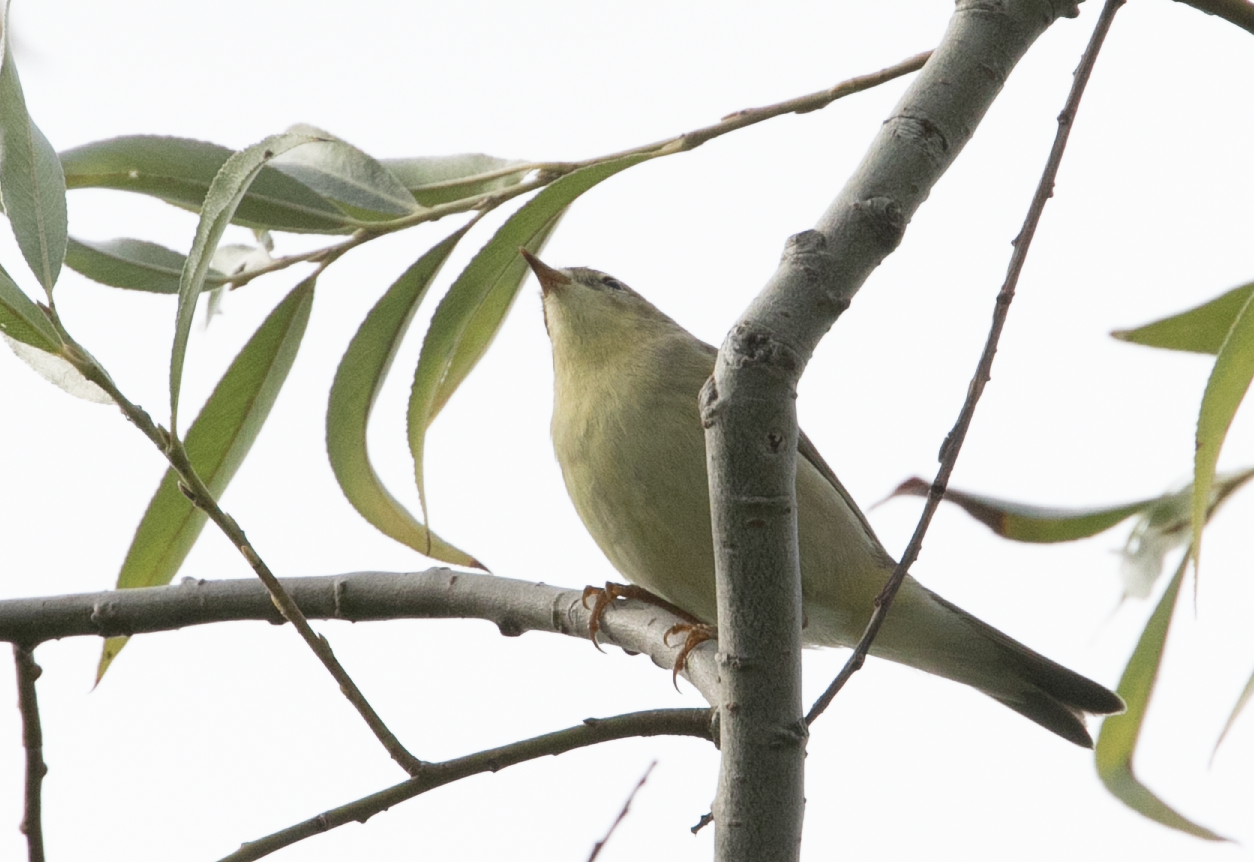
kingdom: Animalia
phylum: Chordata
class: Aves
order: Passeriformes
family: Phylloscopidae
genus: Phylloscopus
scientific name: Phylloscopus trochilus
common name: Willow warbler
